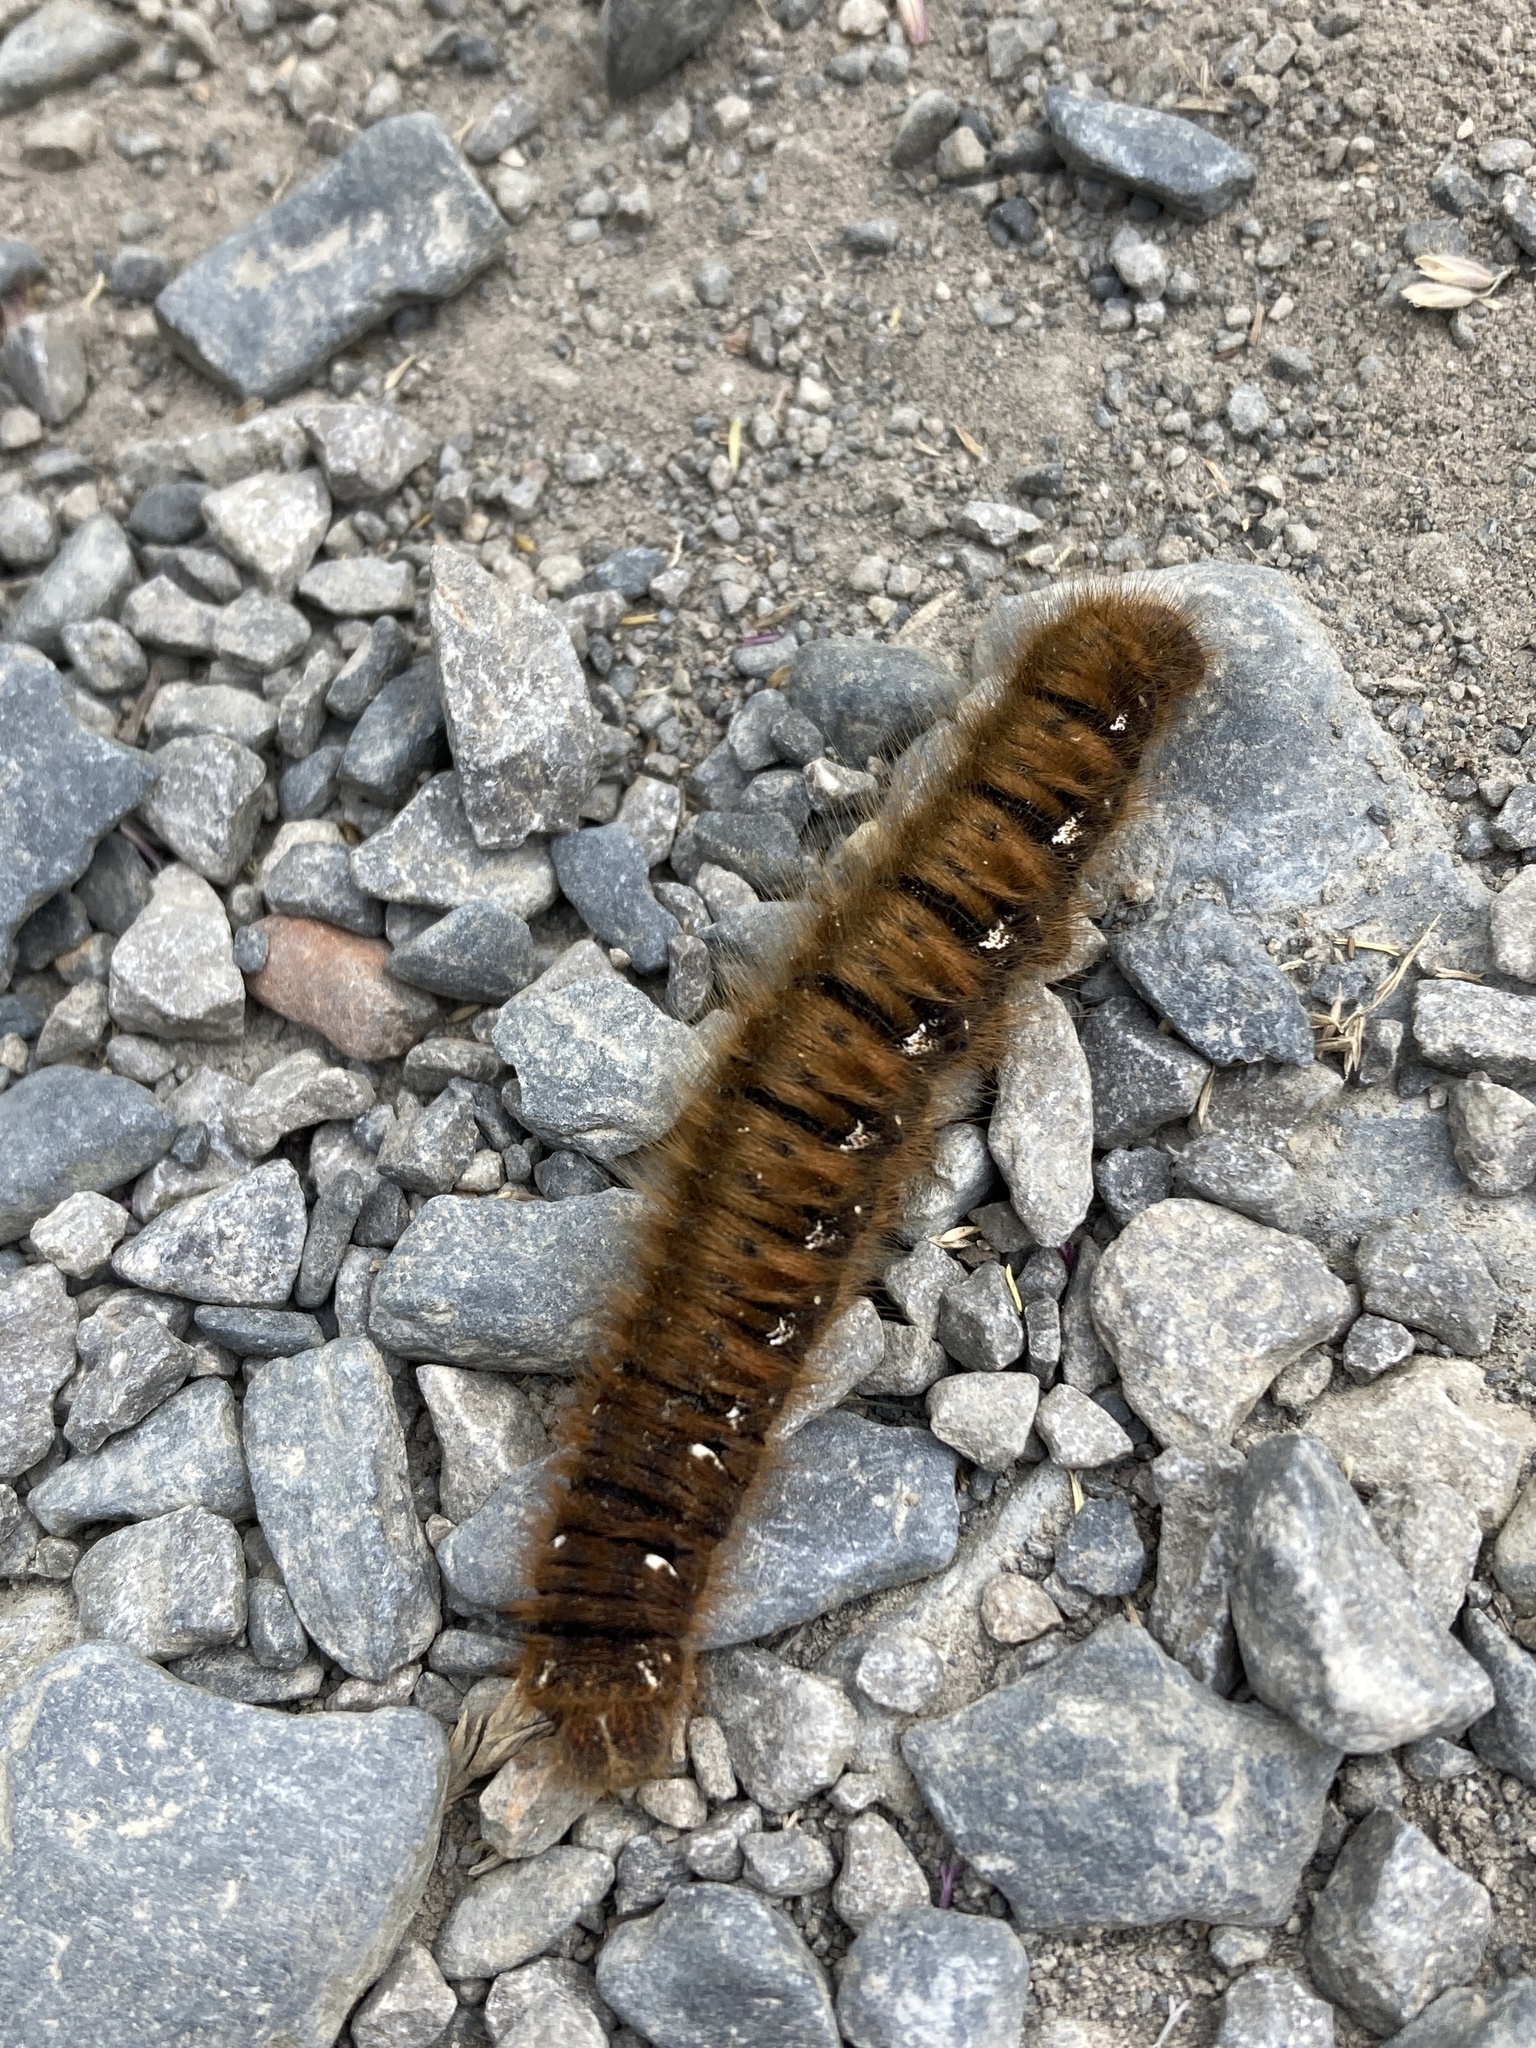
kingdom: Animalia
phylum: Arthropoda
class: Insecta
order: Lepidoptera
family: Lasiocampidae
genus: Lasiocampa
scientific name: Lasiocampa quercus
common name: Oak eggar
